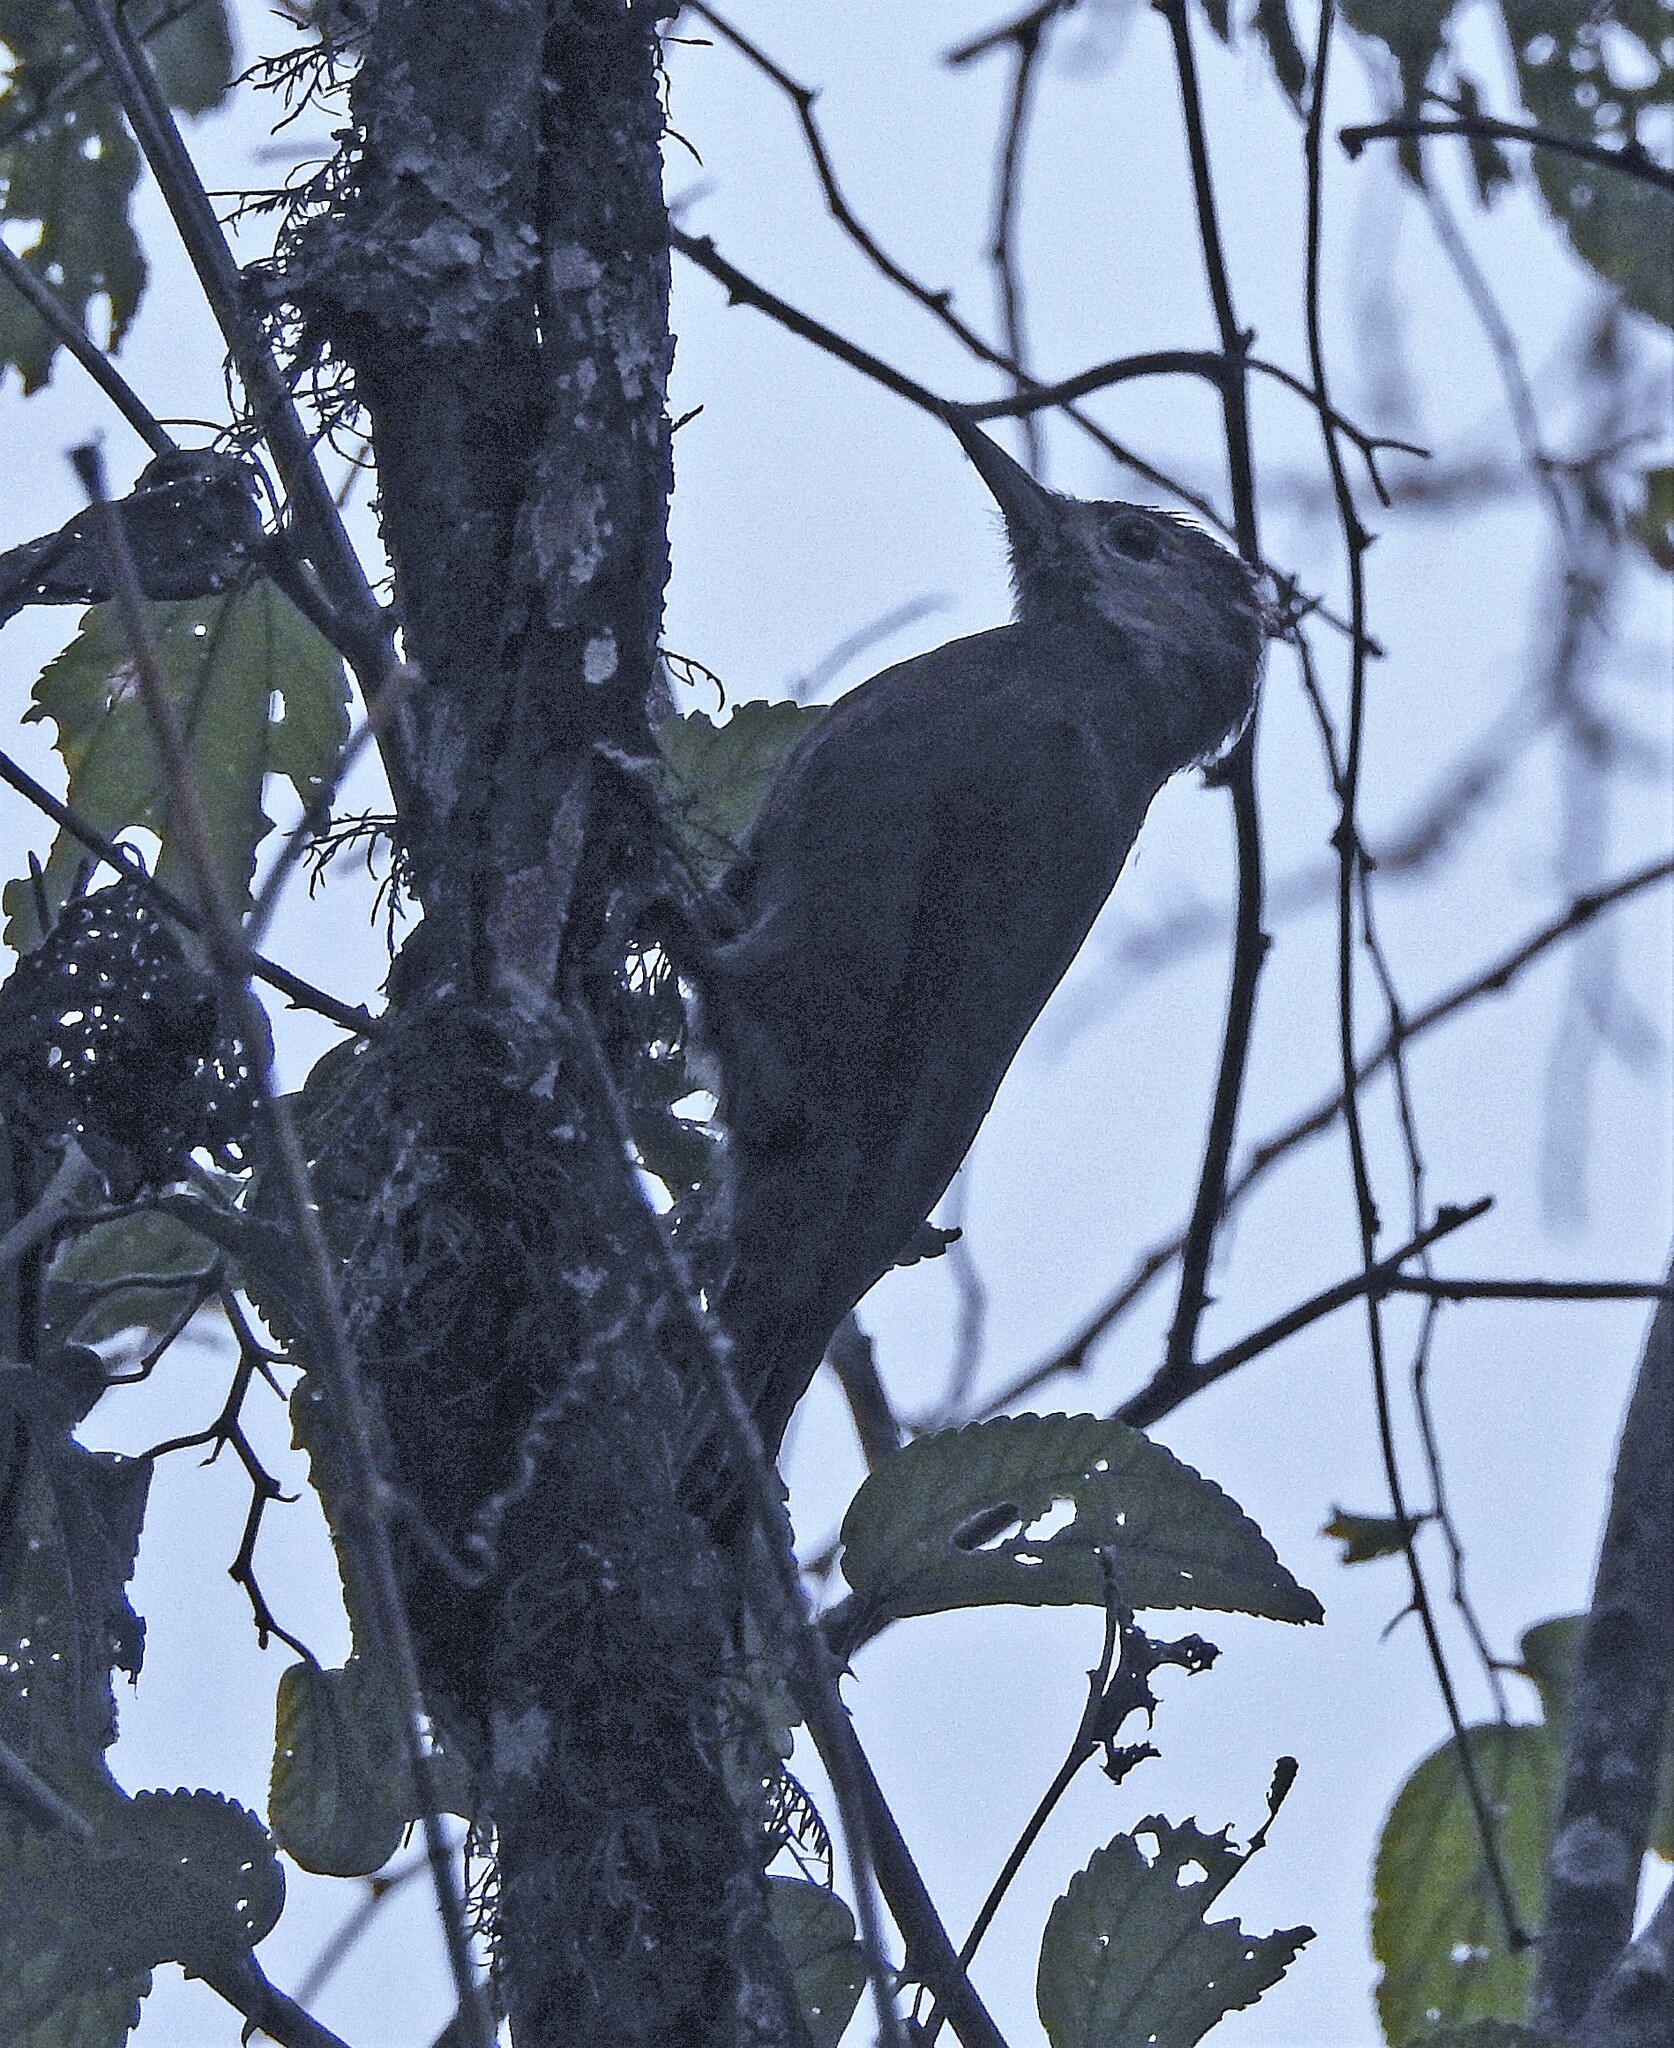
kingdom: Animalia
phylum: Chordata
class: Aves
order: Piciformes
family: Picidae
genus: Leuconotopicus
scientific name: Leuconotopicus fumigatus
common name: Smoky-brown woodpecker
